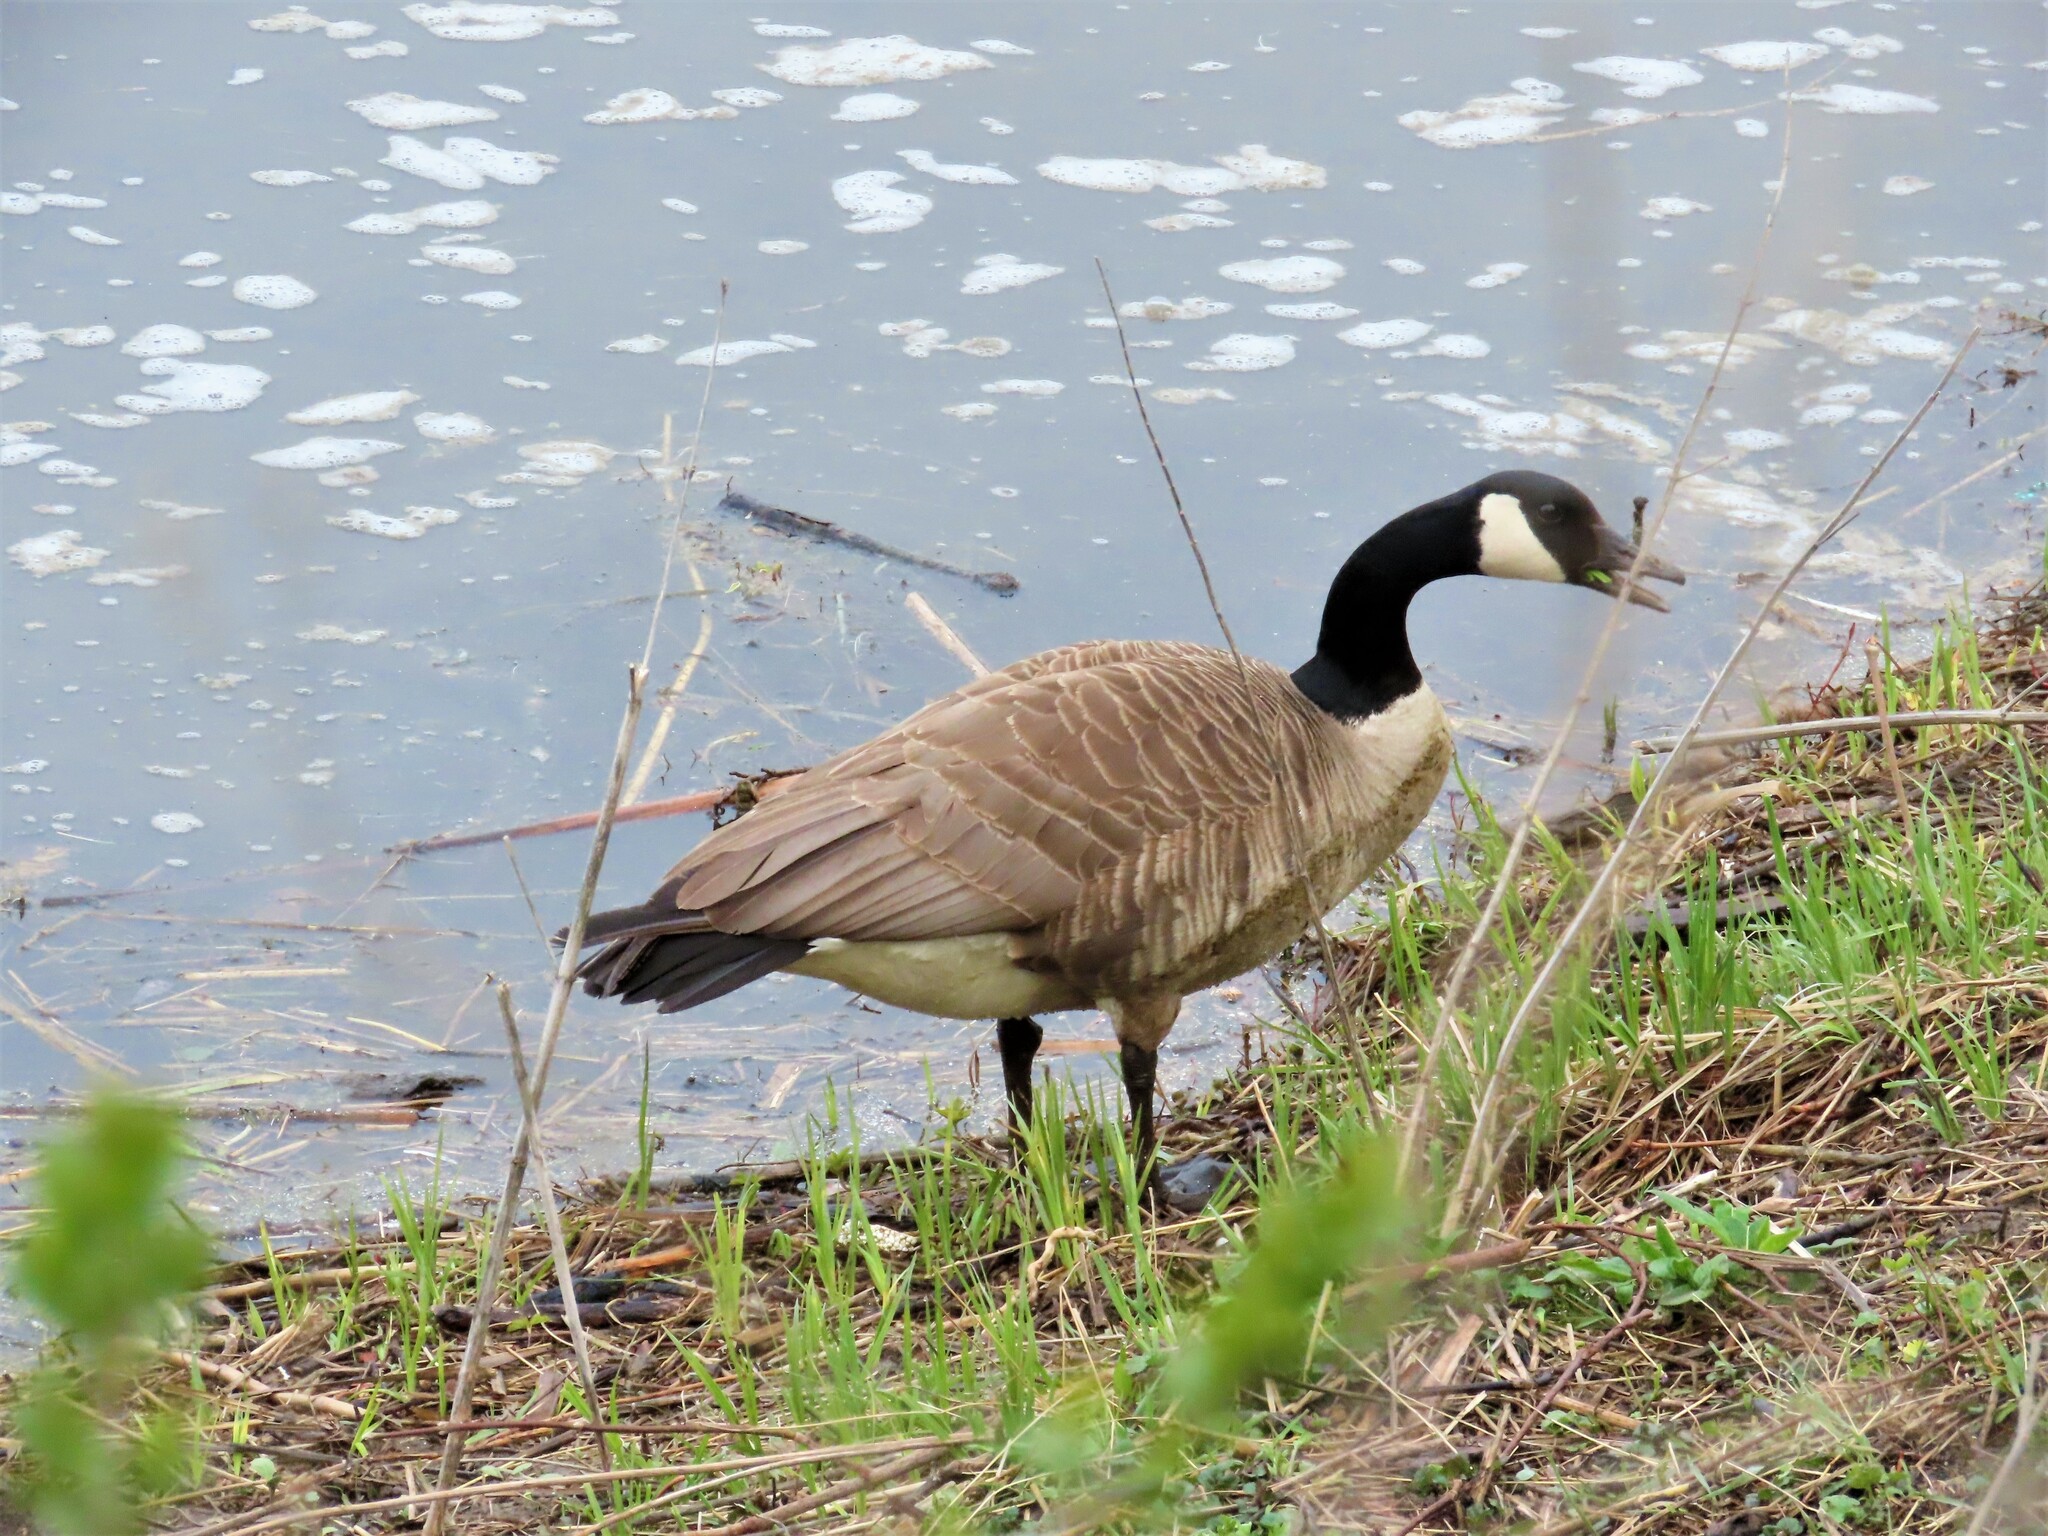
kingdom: Animalia
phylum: Chordata
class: Aves
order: Anseriformes
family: Anatidae
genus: Branta
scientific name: Branta canadensis
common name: Canada goose
